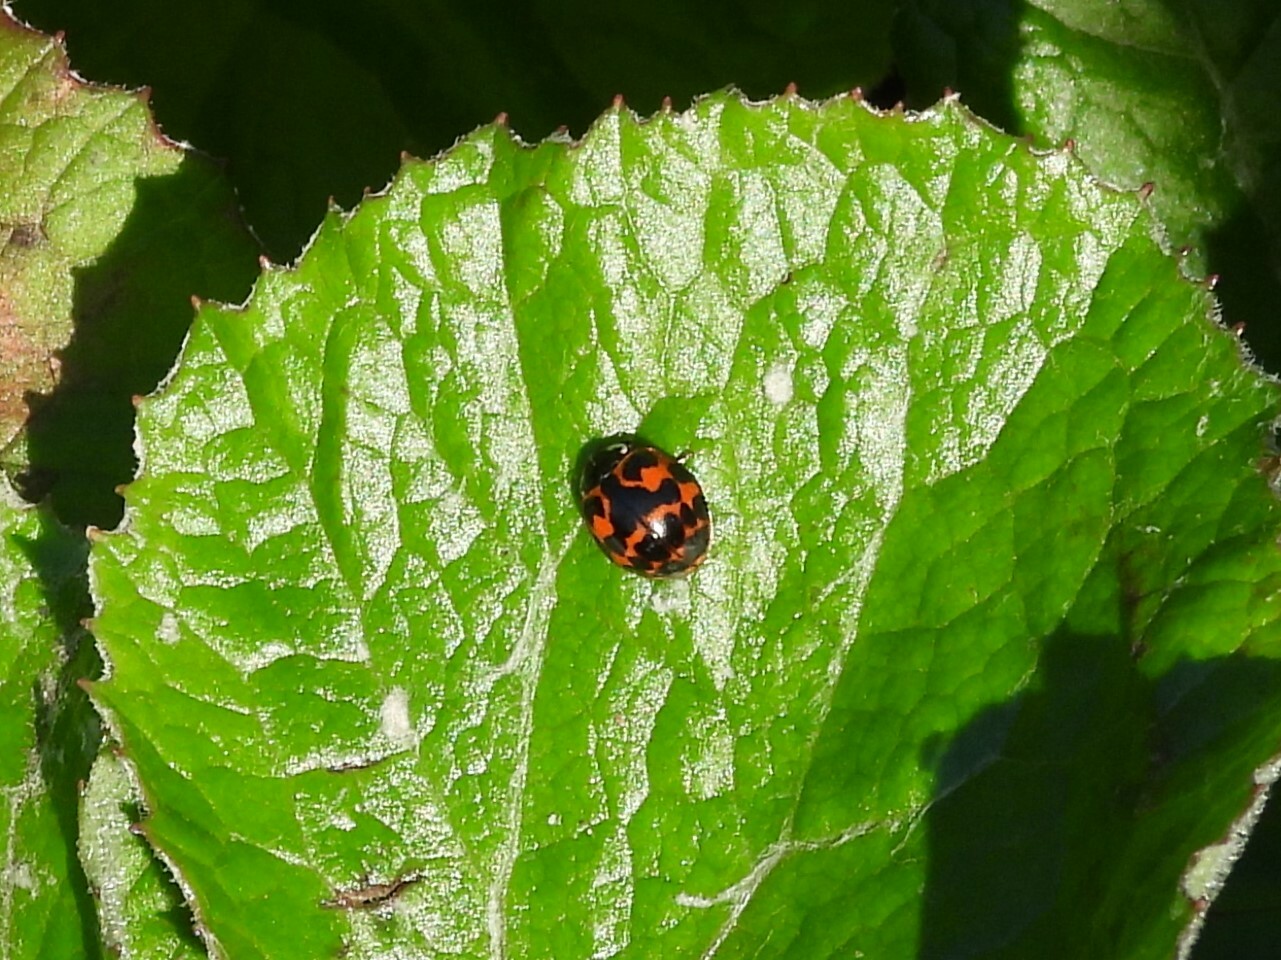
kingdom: Animalia
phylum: Arthropoda
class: Insecta
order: Coleoptera
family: Coccinellidae
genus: Harmonia
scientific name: Harmonia axyridis
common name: Harlequin ladybird
